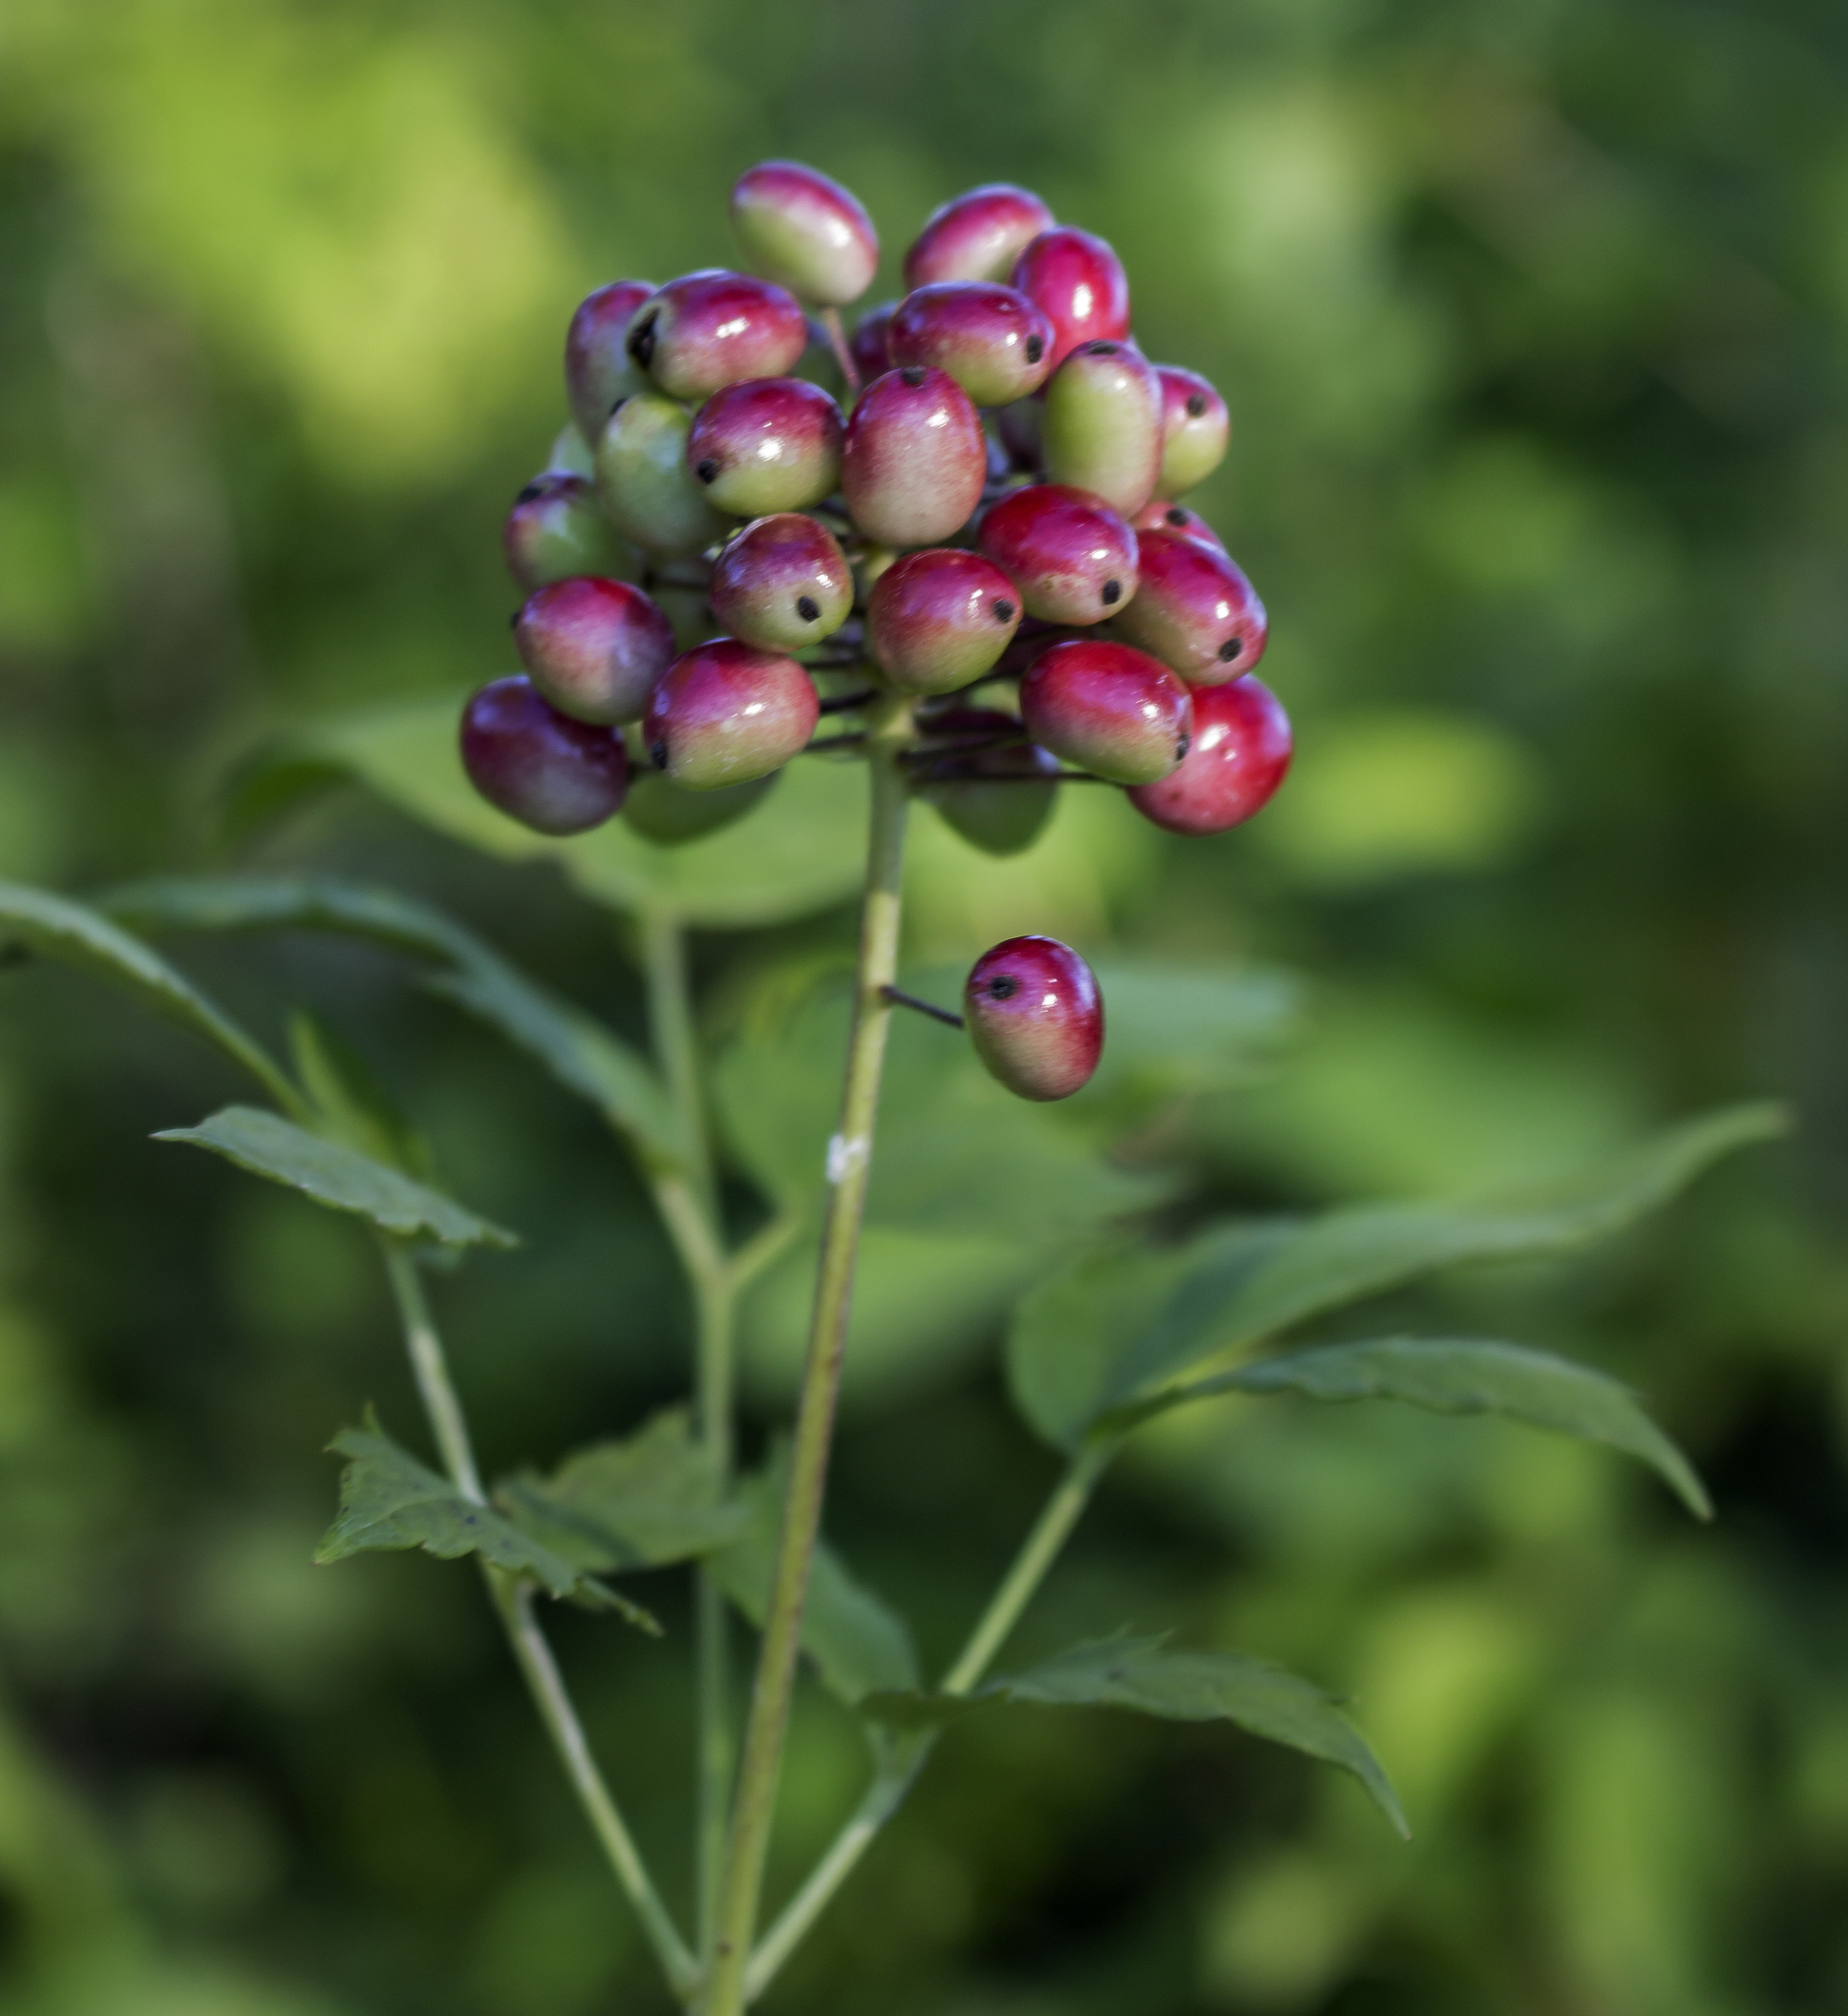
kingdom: Plantae
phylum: Tracheophyta
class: Magnoliopsida
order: Ranunculales
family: Ranunculaceae
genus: Actaea
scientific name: Actaea rubra
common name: Red baneberry
